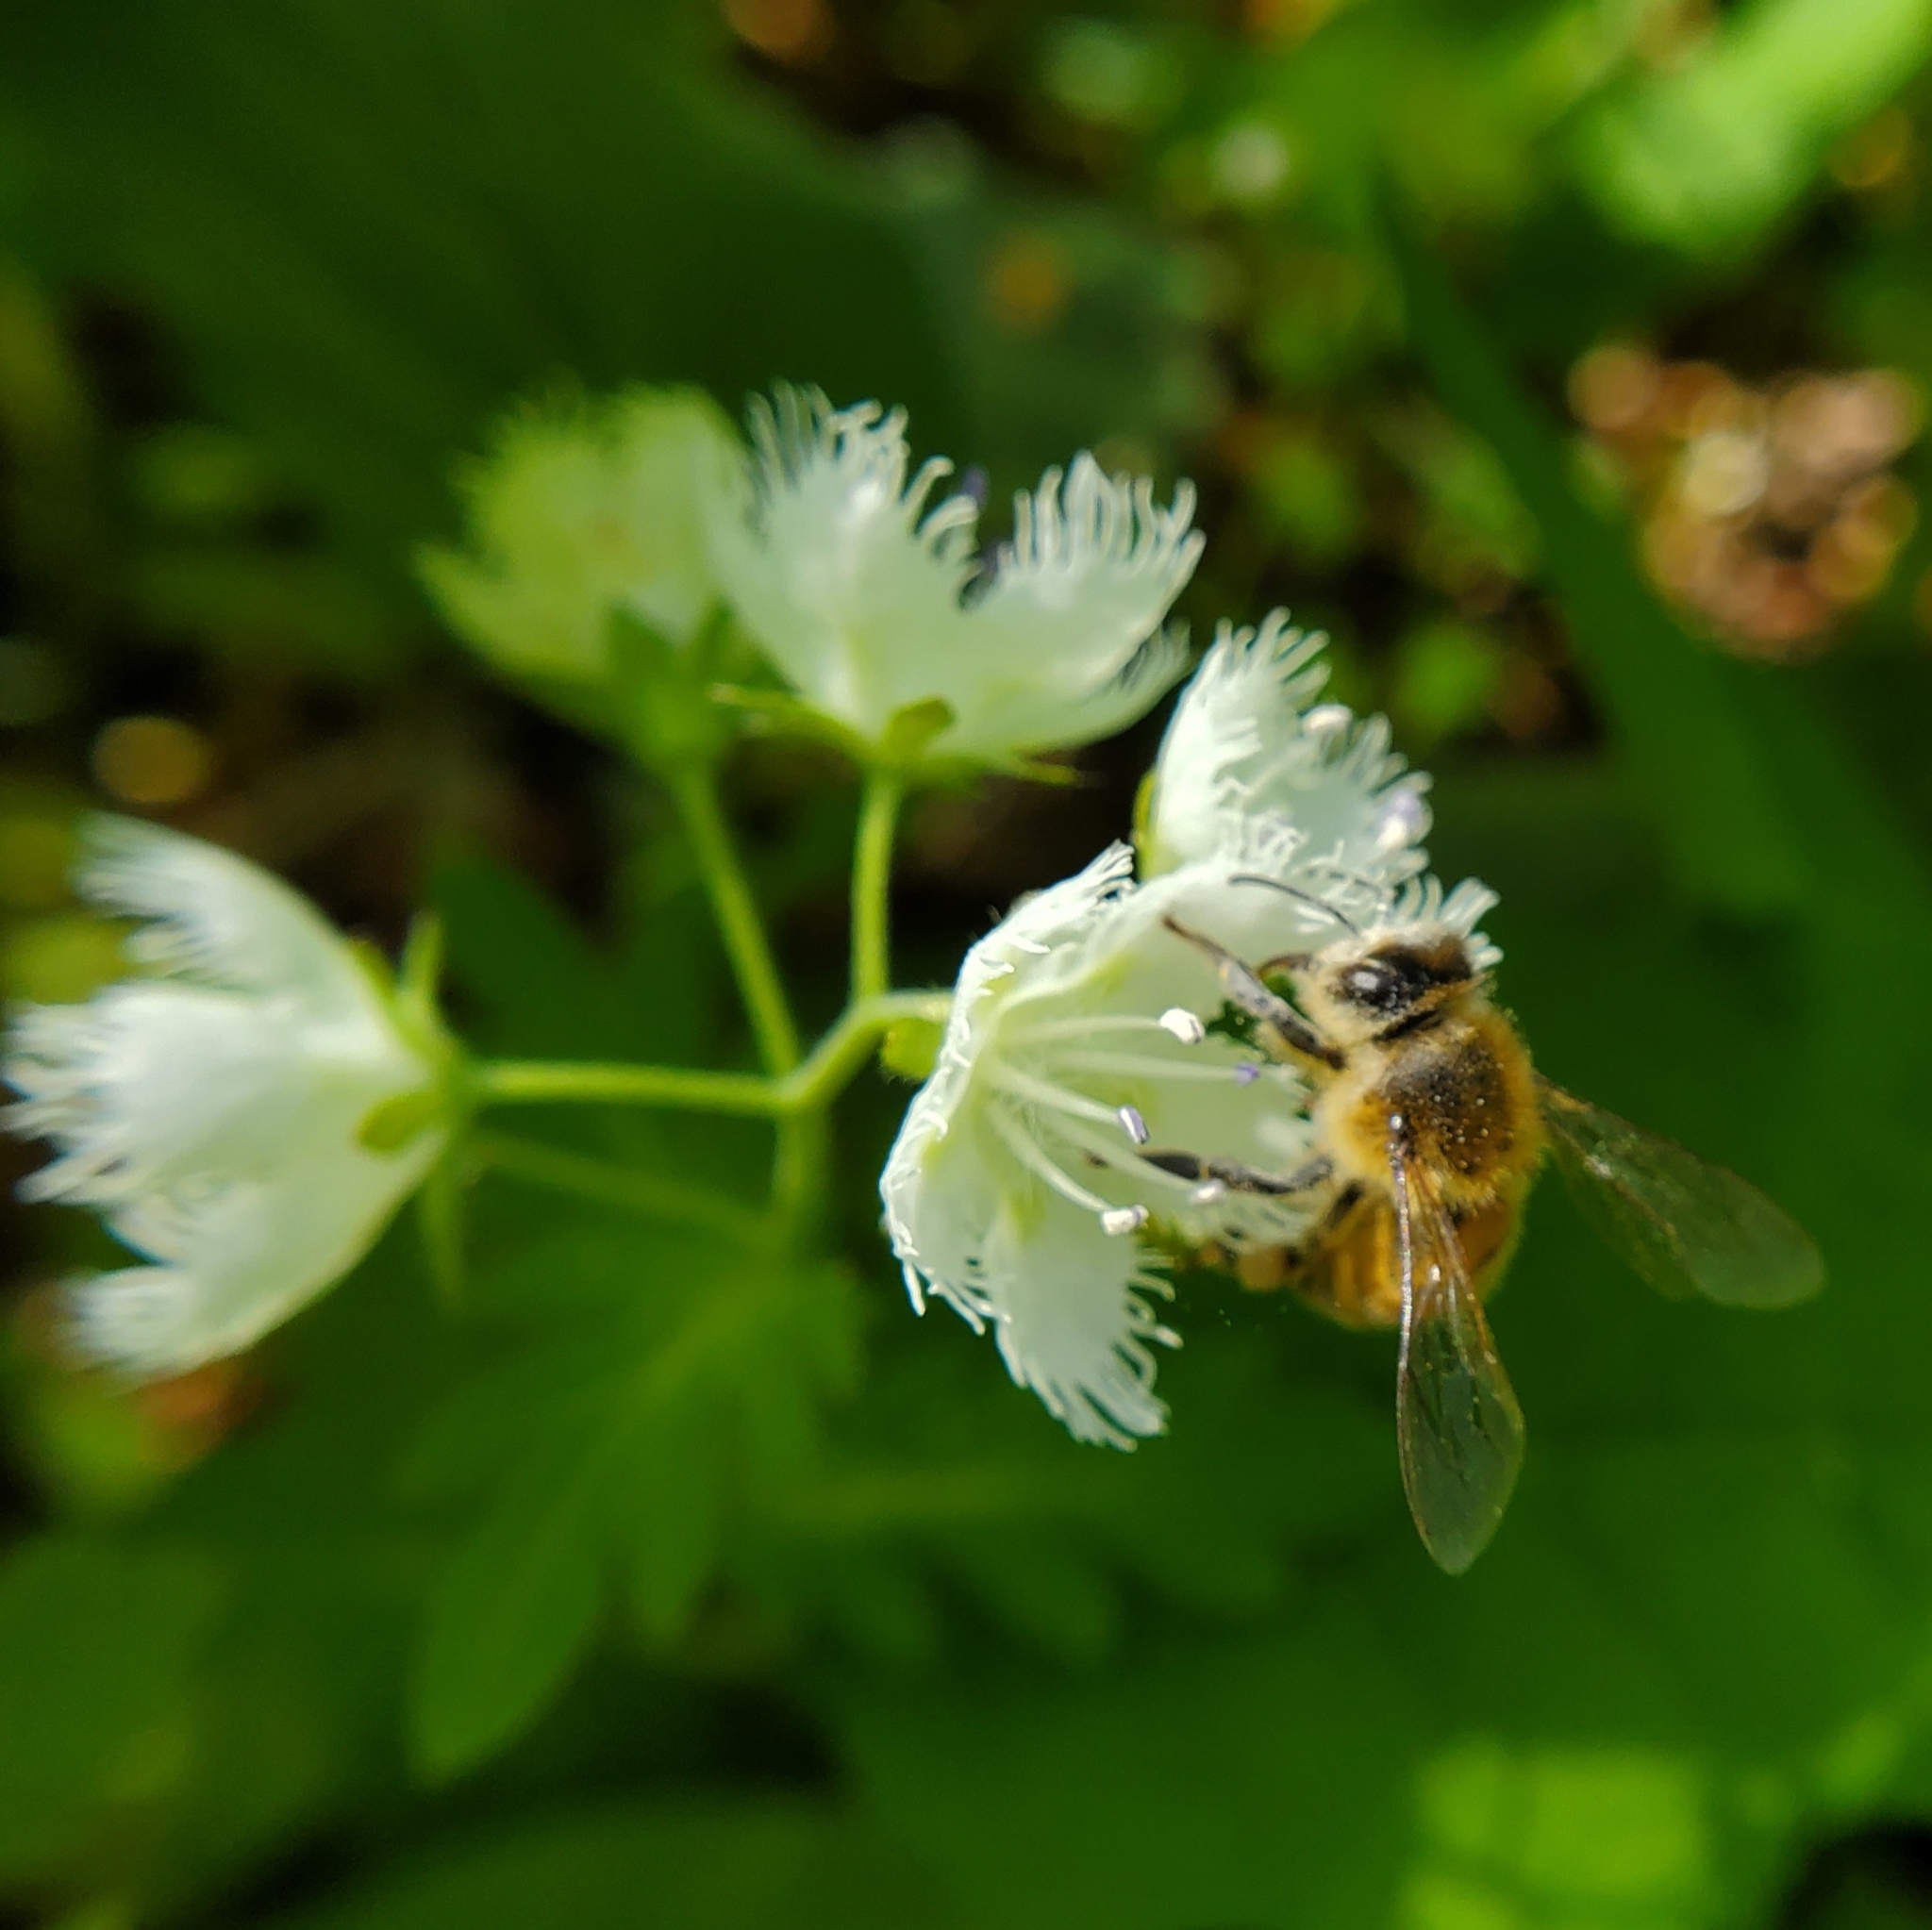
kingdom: Plantae
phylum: Tracheophyta
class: Magnoliopsida
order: Boraginales
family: Hydrophyllaceae
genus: Phacelia
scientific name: Phacelia fimbriata
